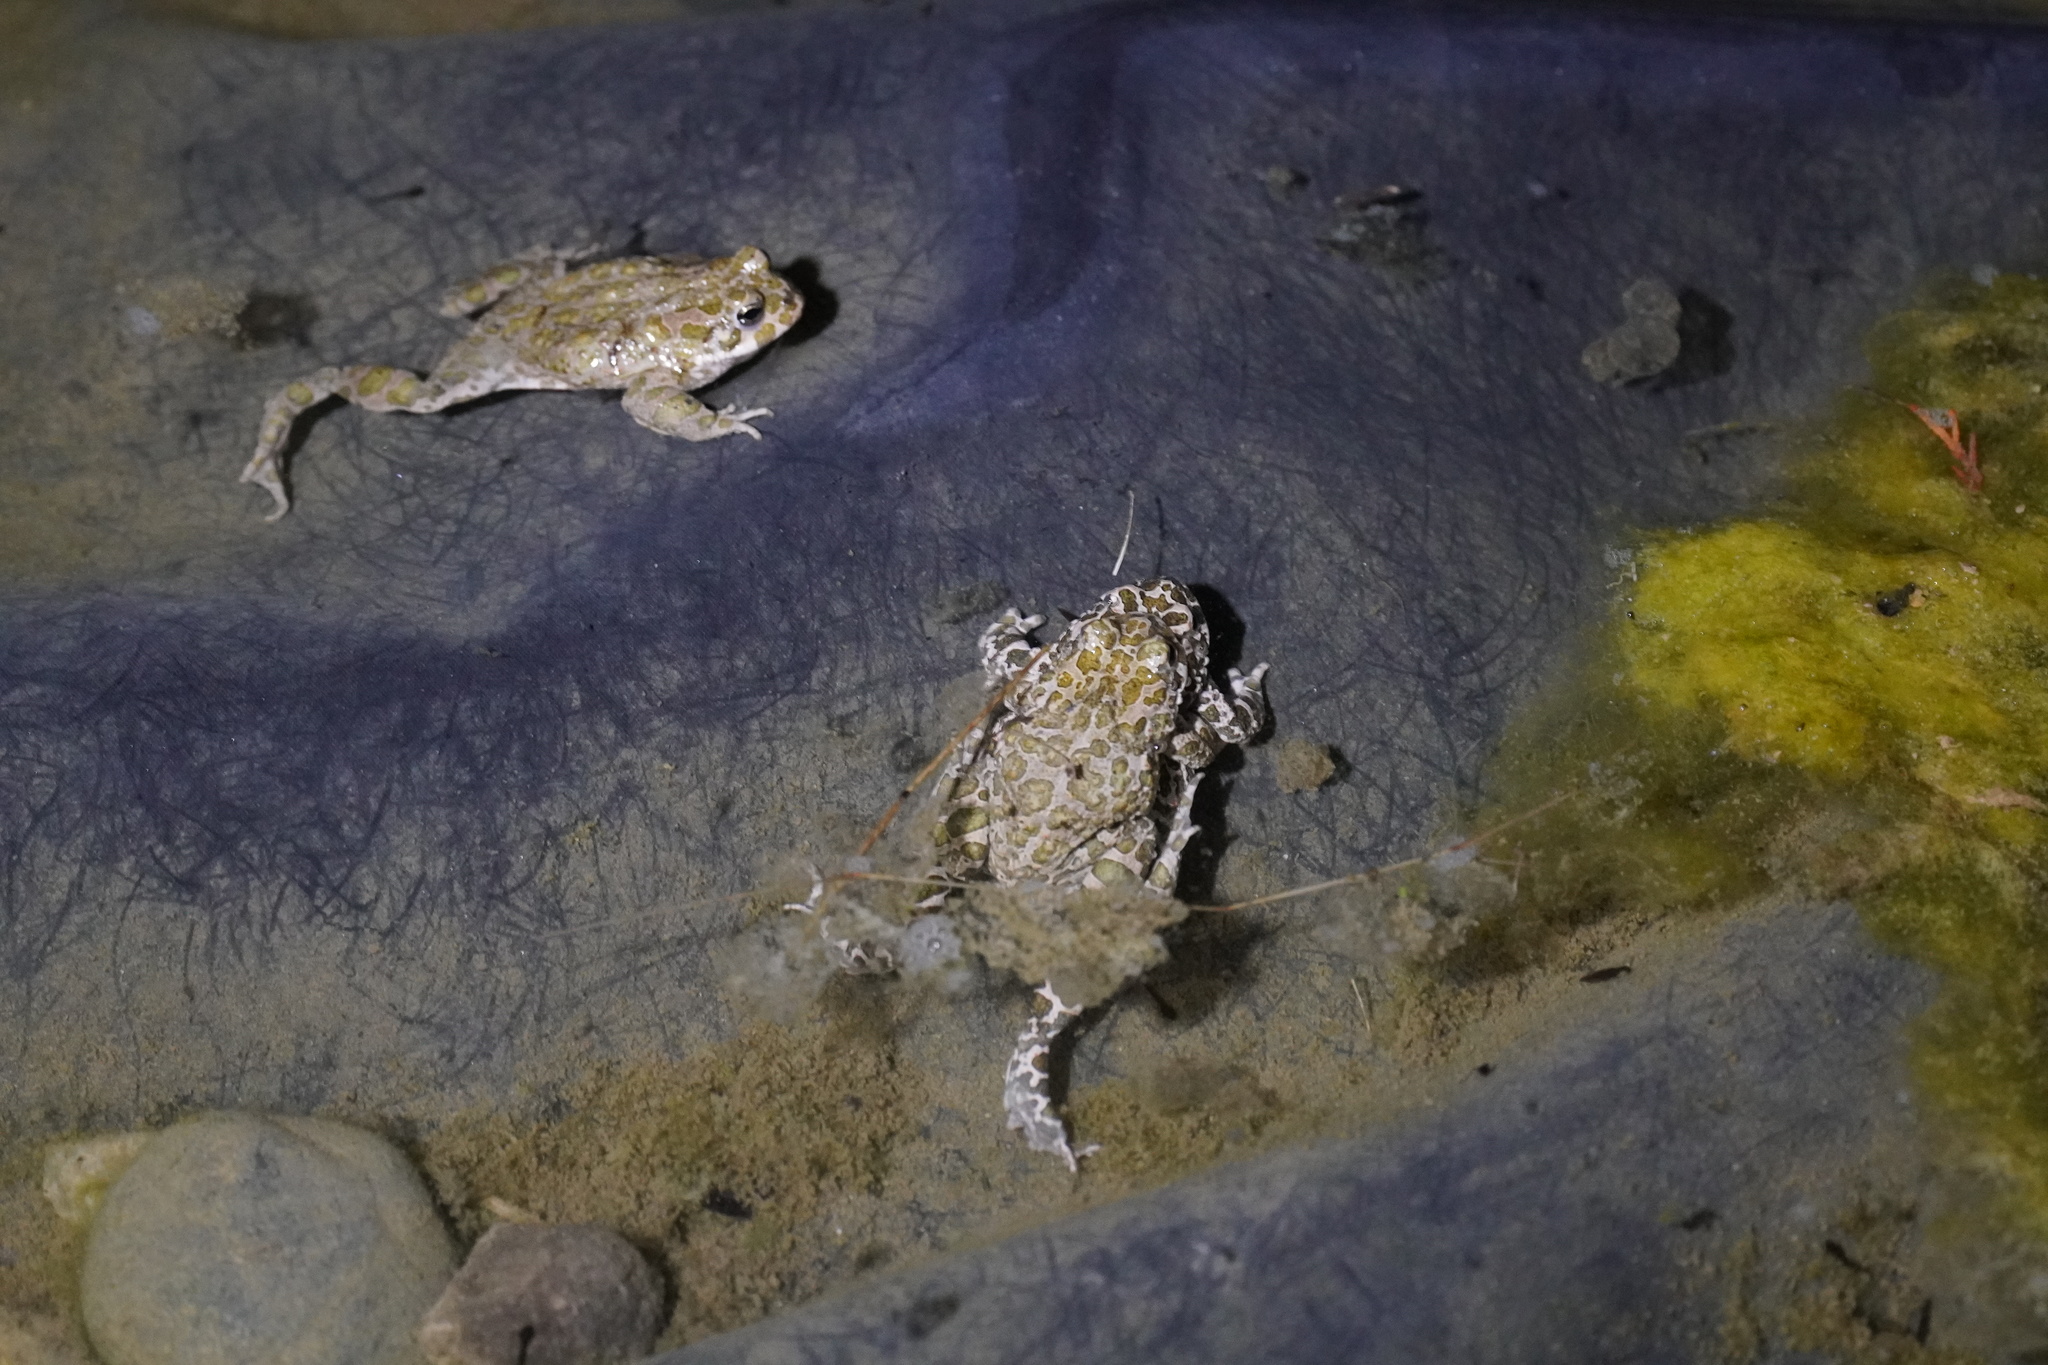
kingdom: Animalia
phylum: Chordata
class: Amphibia
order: Anura
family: Bufonidae
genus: Bufotes
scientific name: Bufotes viridis
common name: European green toad
